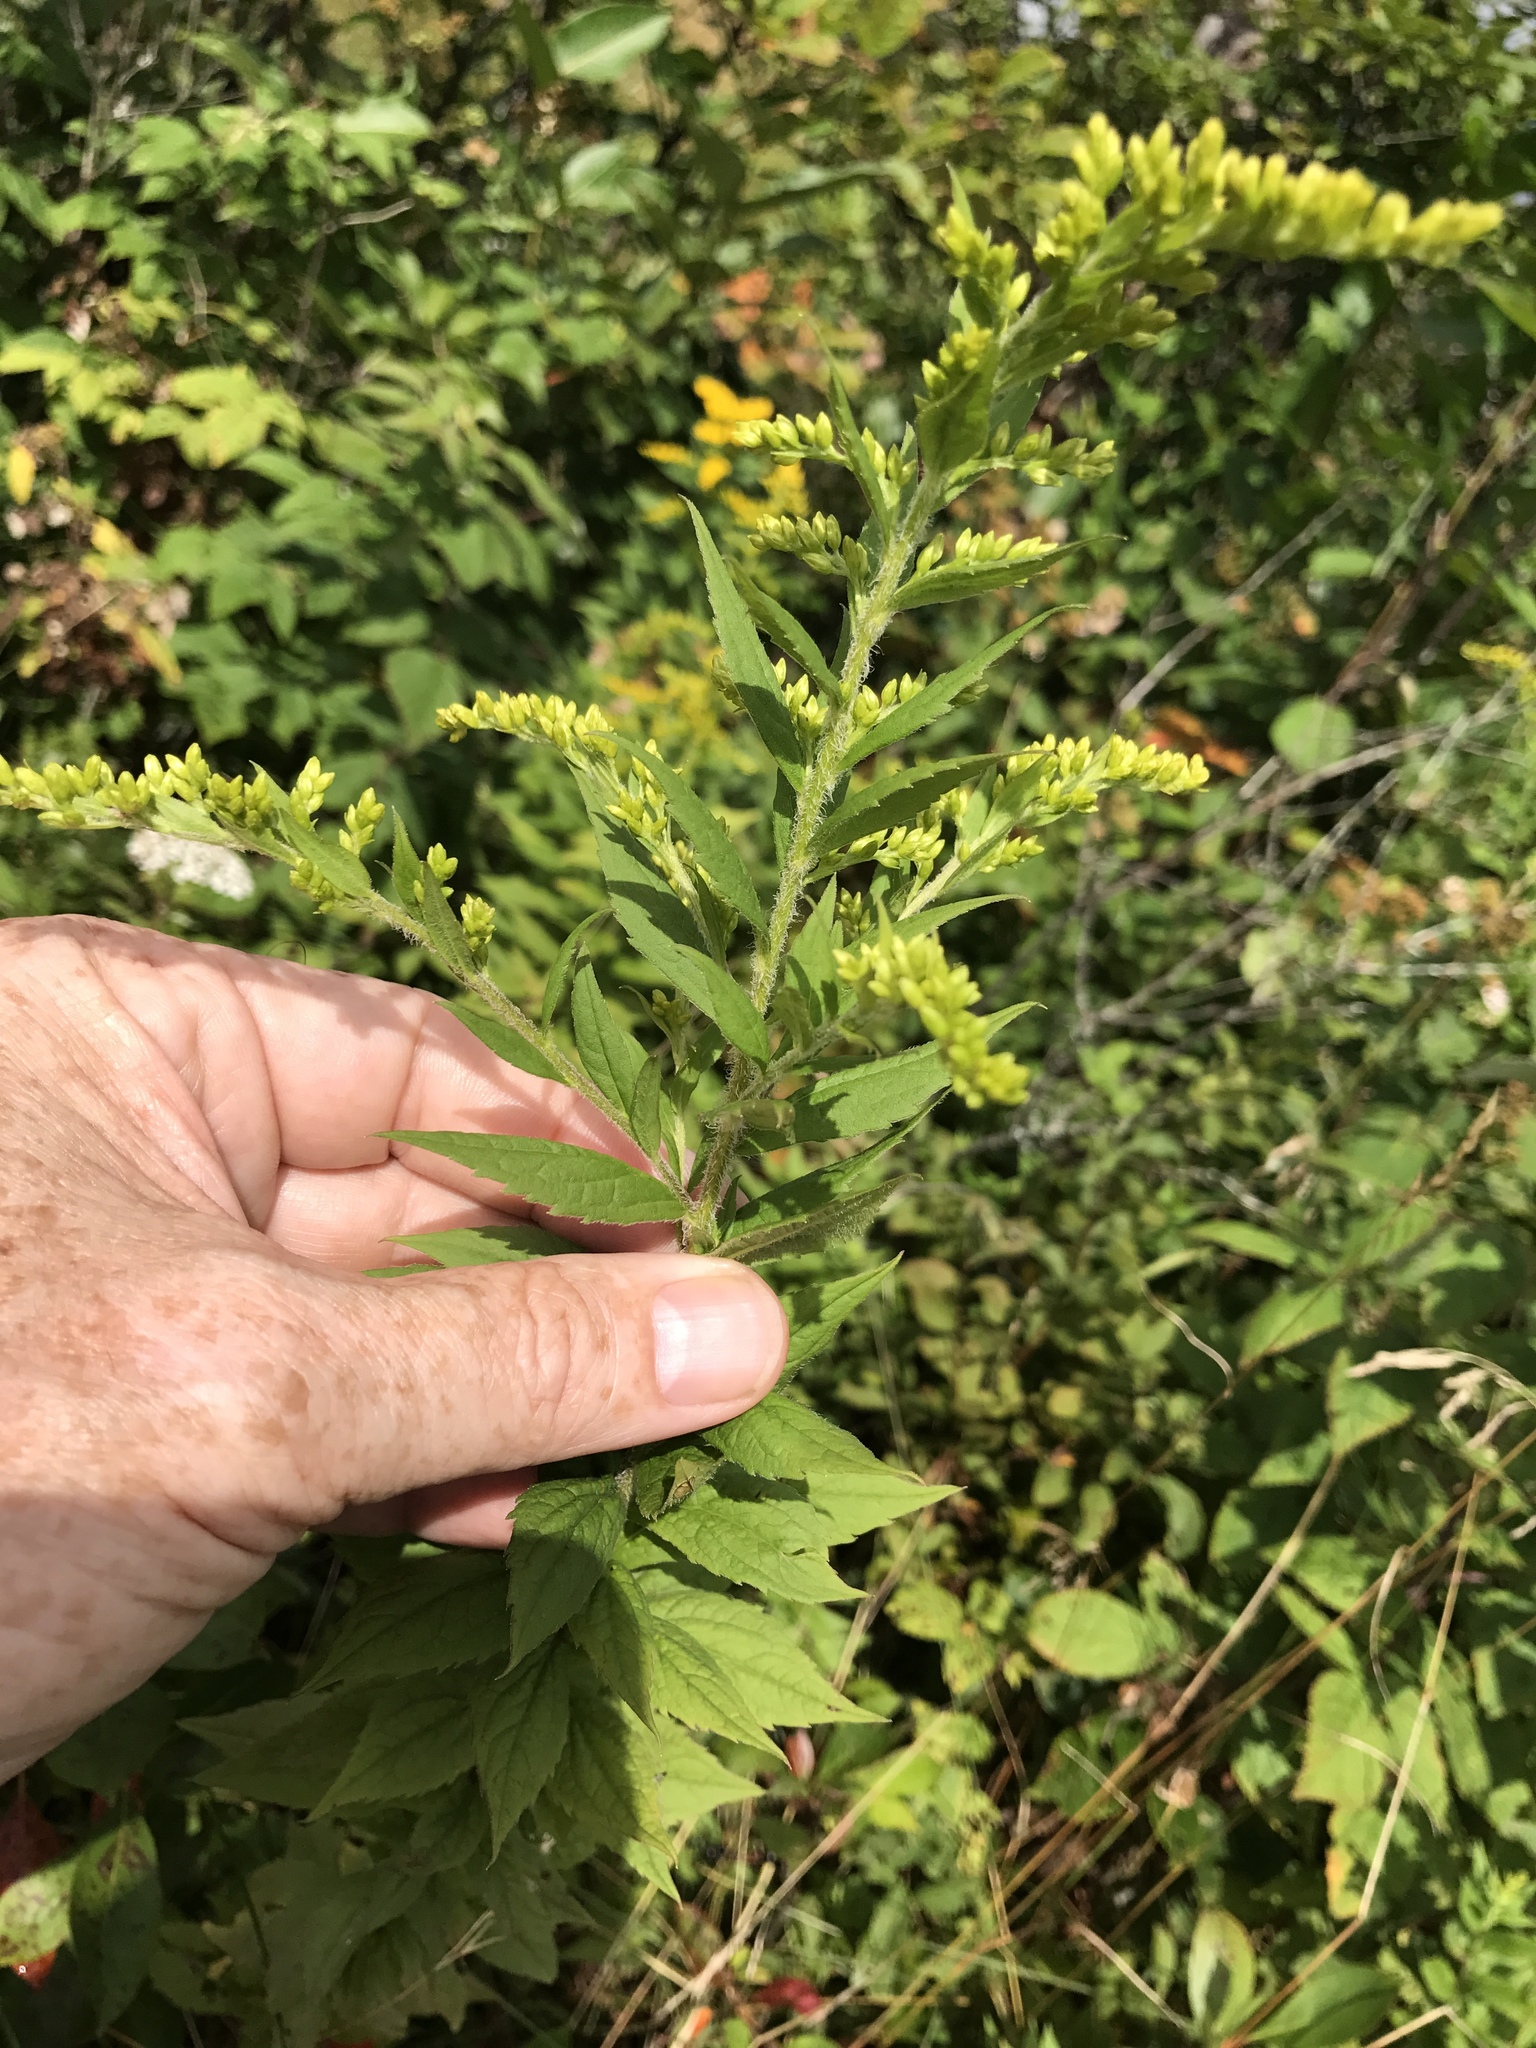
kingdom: Plantae
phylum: Tracheophyta
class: Magnoliopsida
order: Asterales
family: Asteraceae
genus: Solidago
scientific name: Solidago rugosa
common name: Rough-stemmed goldenrod
